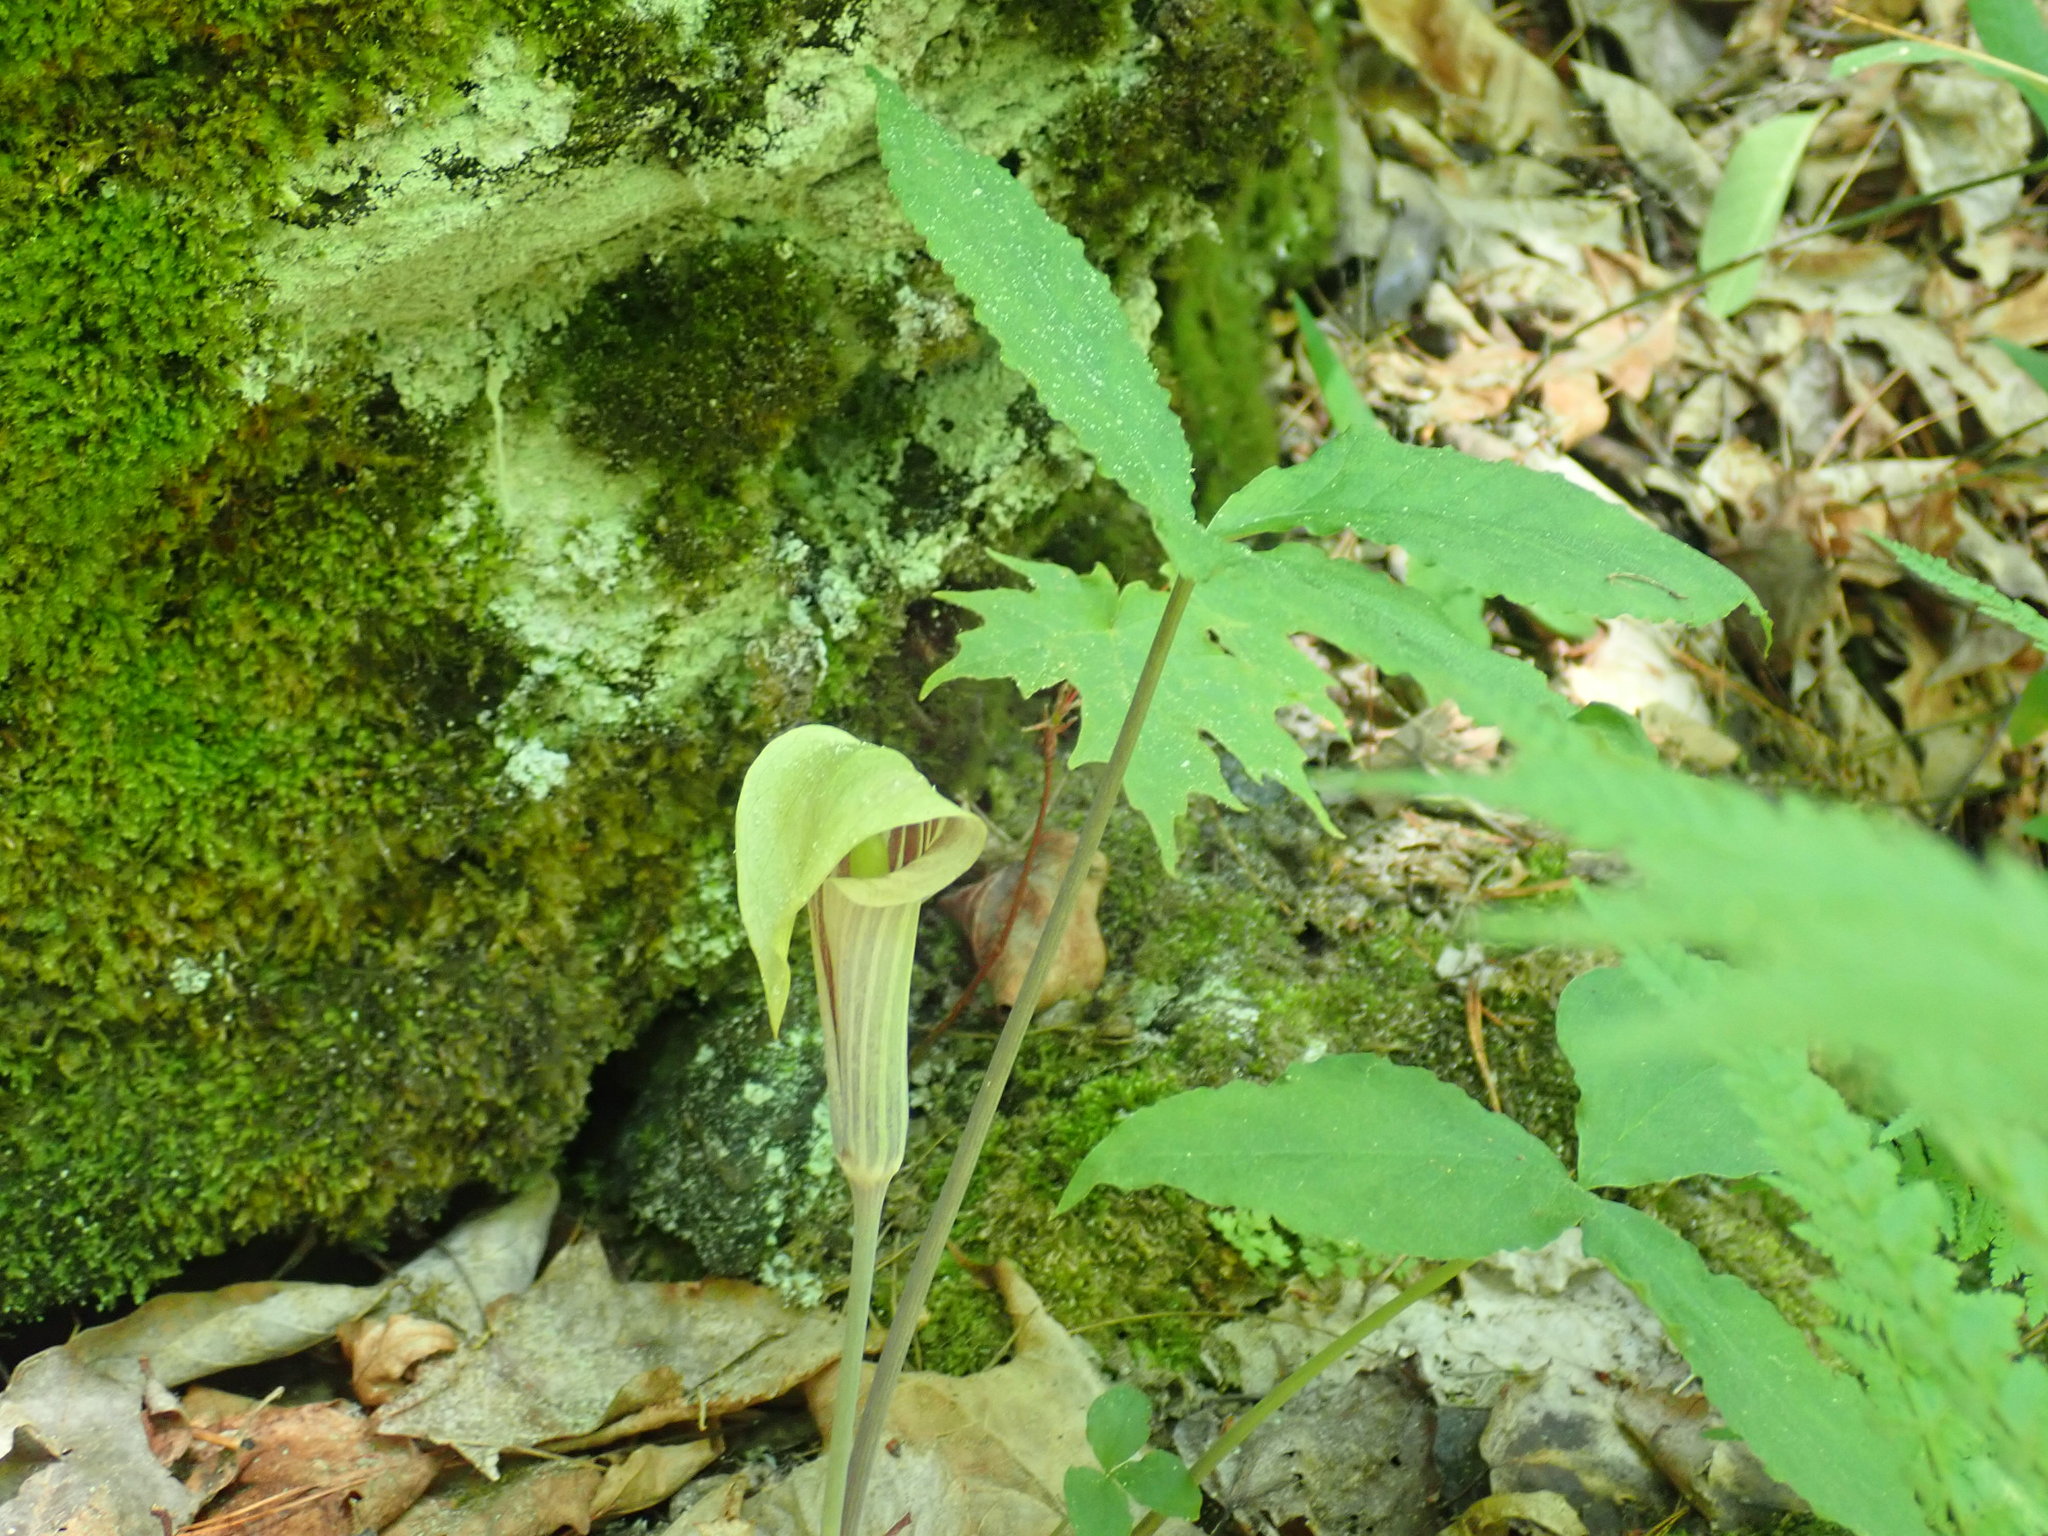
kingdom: Plantae
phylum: Tracheophyta
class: Liliopsida
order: Alismatales
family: Araceae
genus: Arisaema
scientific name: Arisaema triphyllum
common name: Jack-in-the-pulpit
